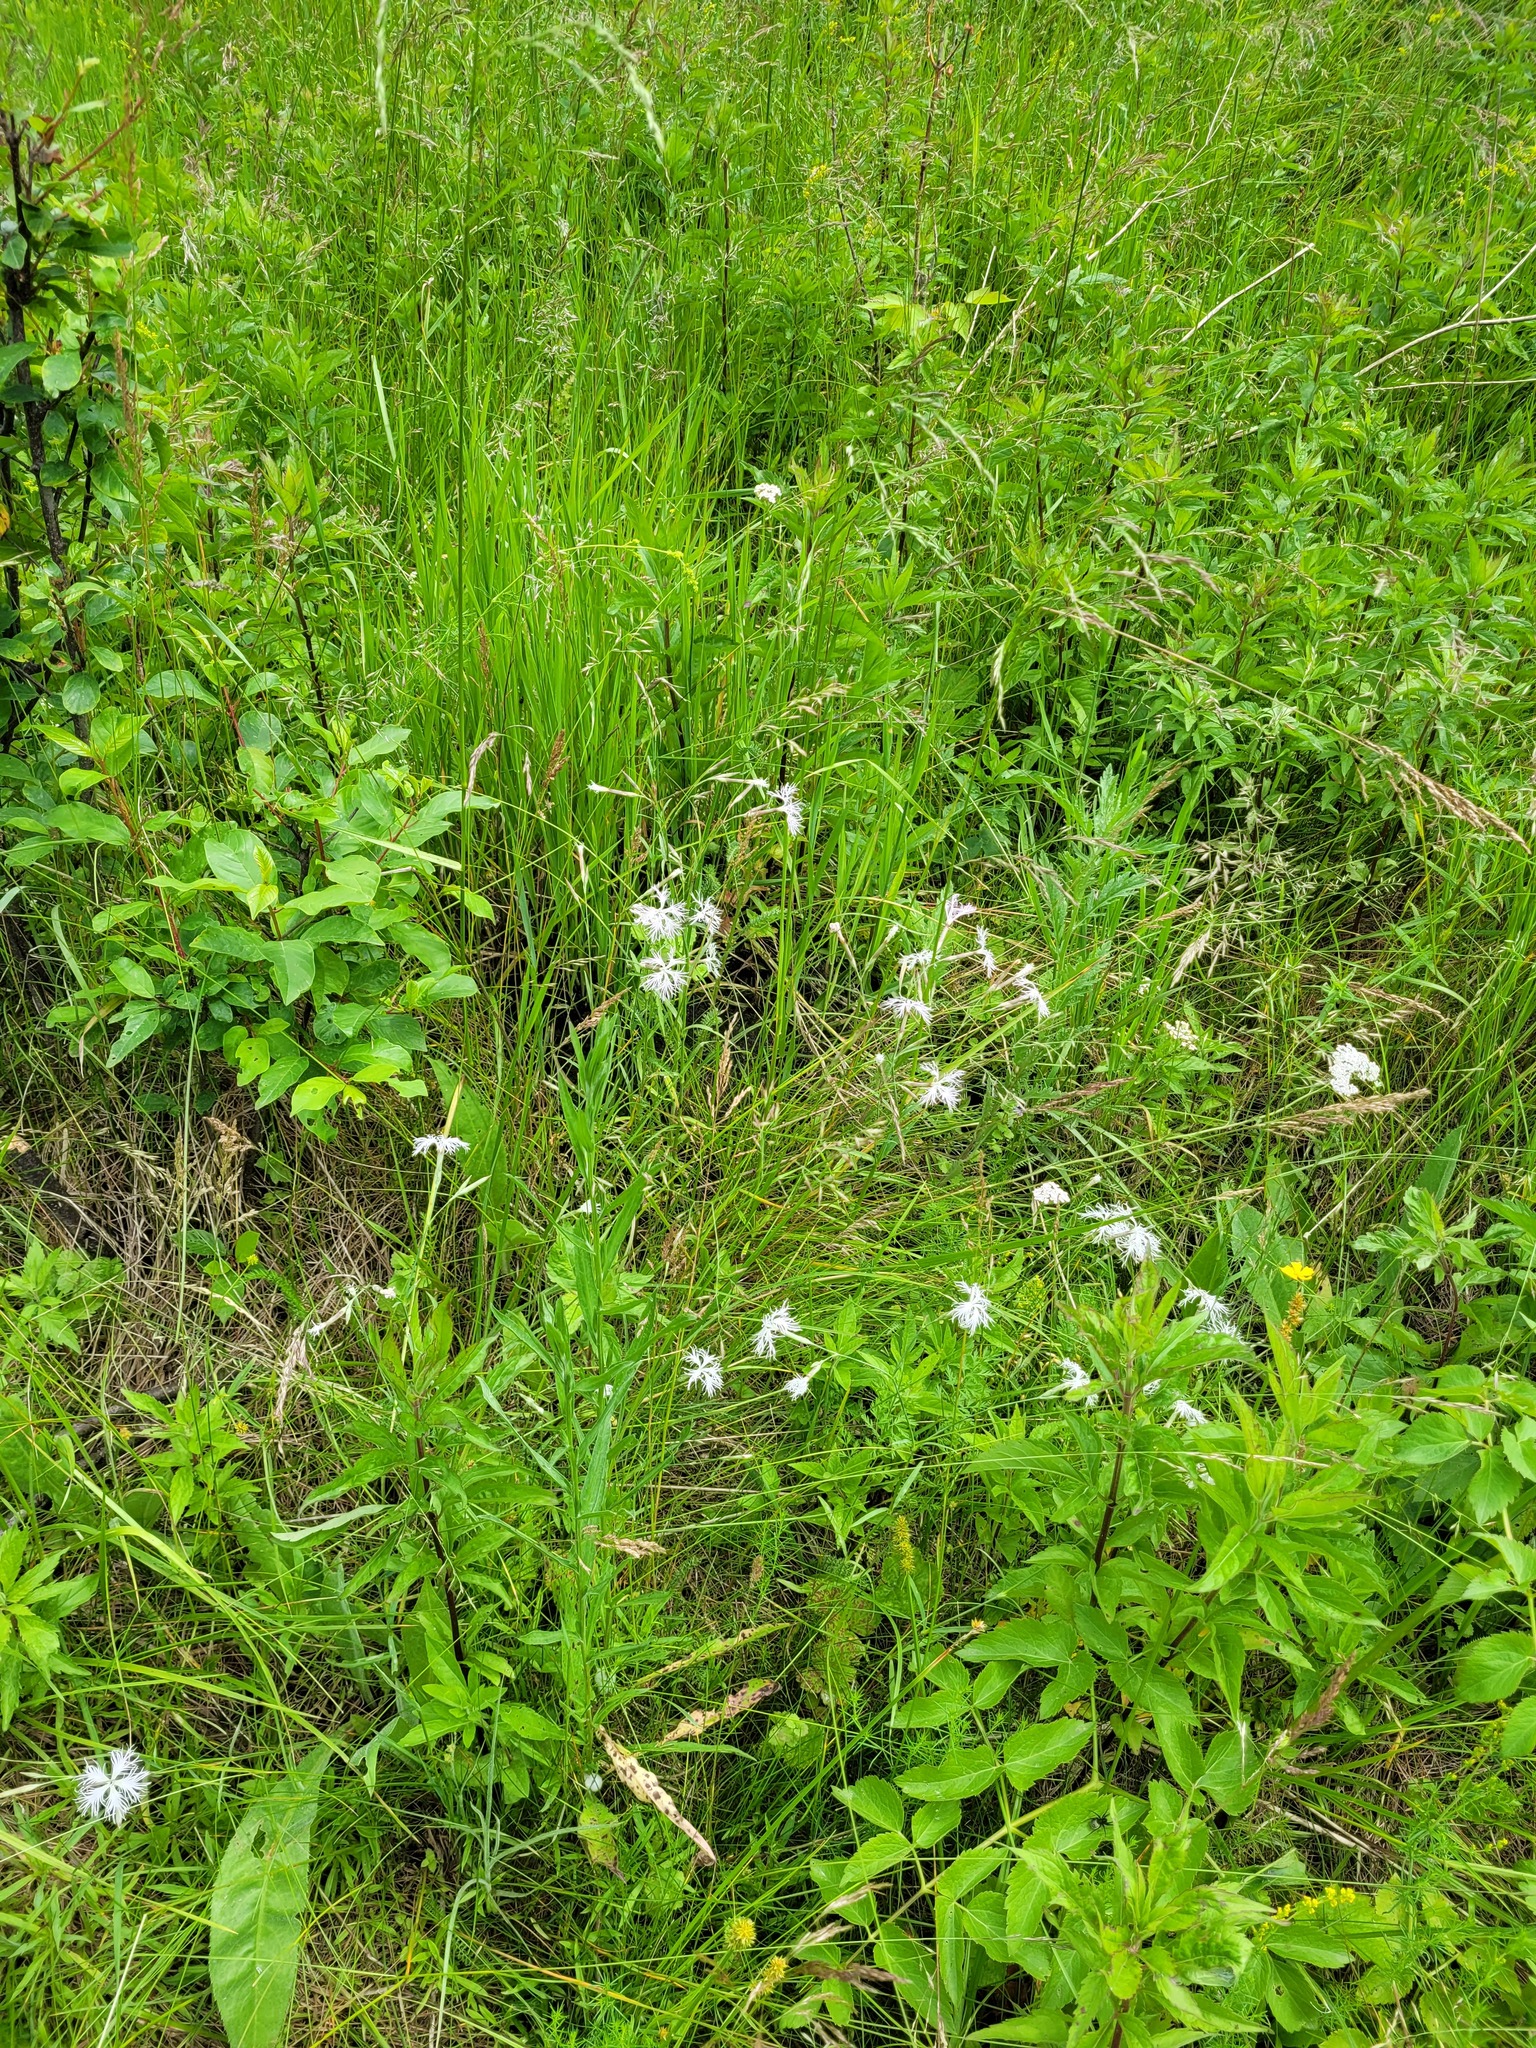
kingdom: Plantae
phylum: Tracheophyta
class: Magnoliopsida
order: Caryophyllales
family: Caryophyllaceae
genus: Dianthus
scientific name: Dianthus superbus
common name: Fringed pink
